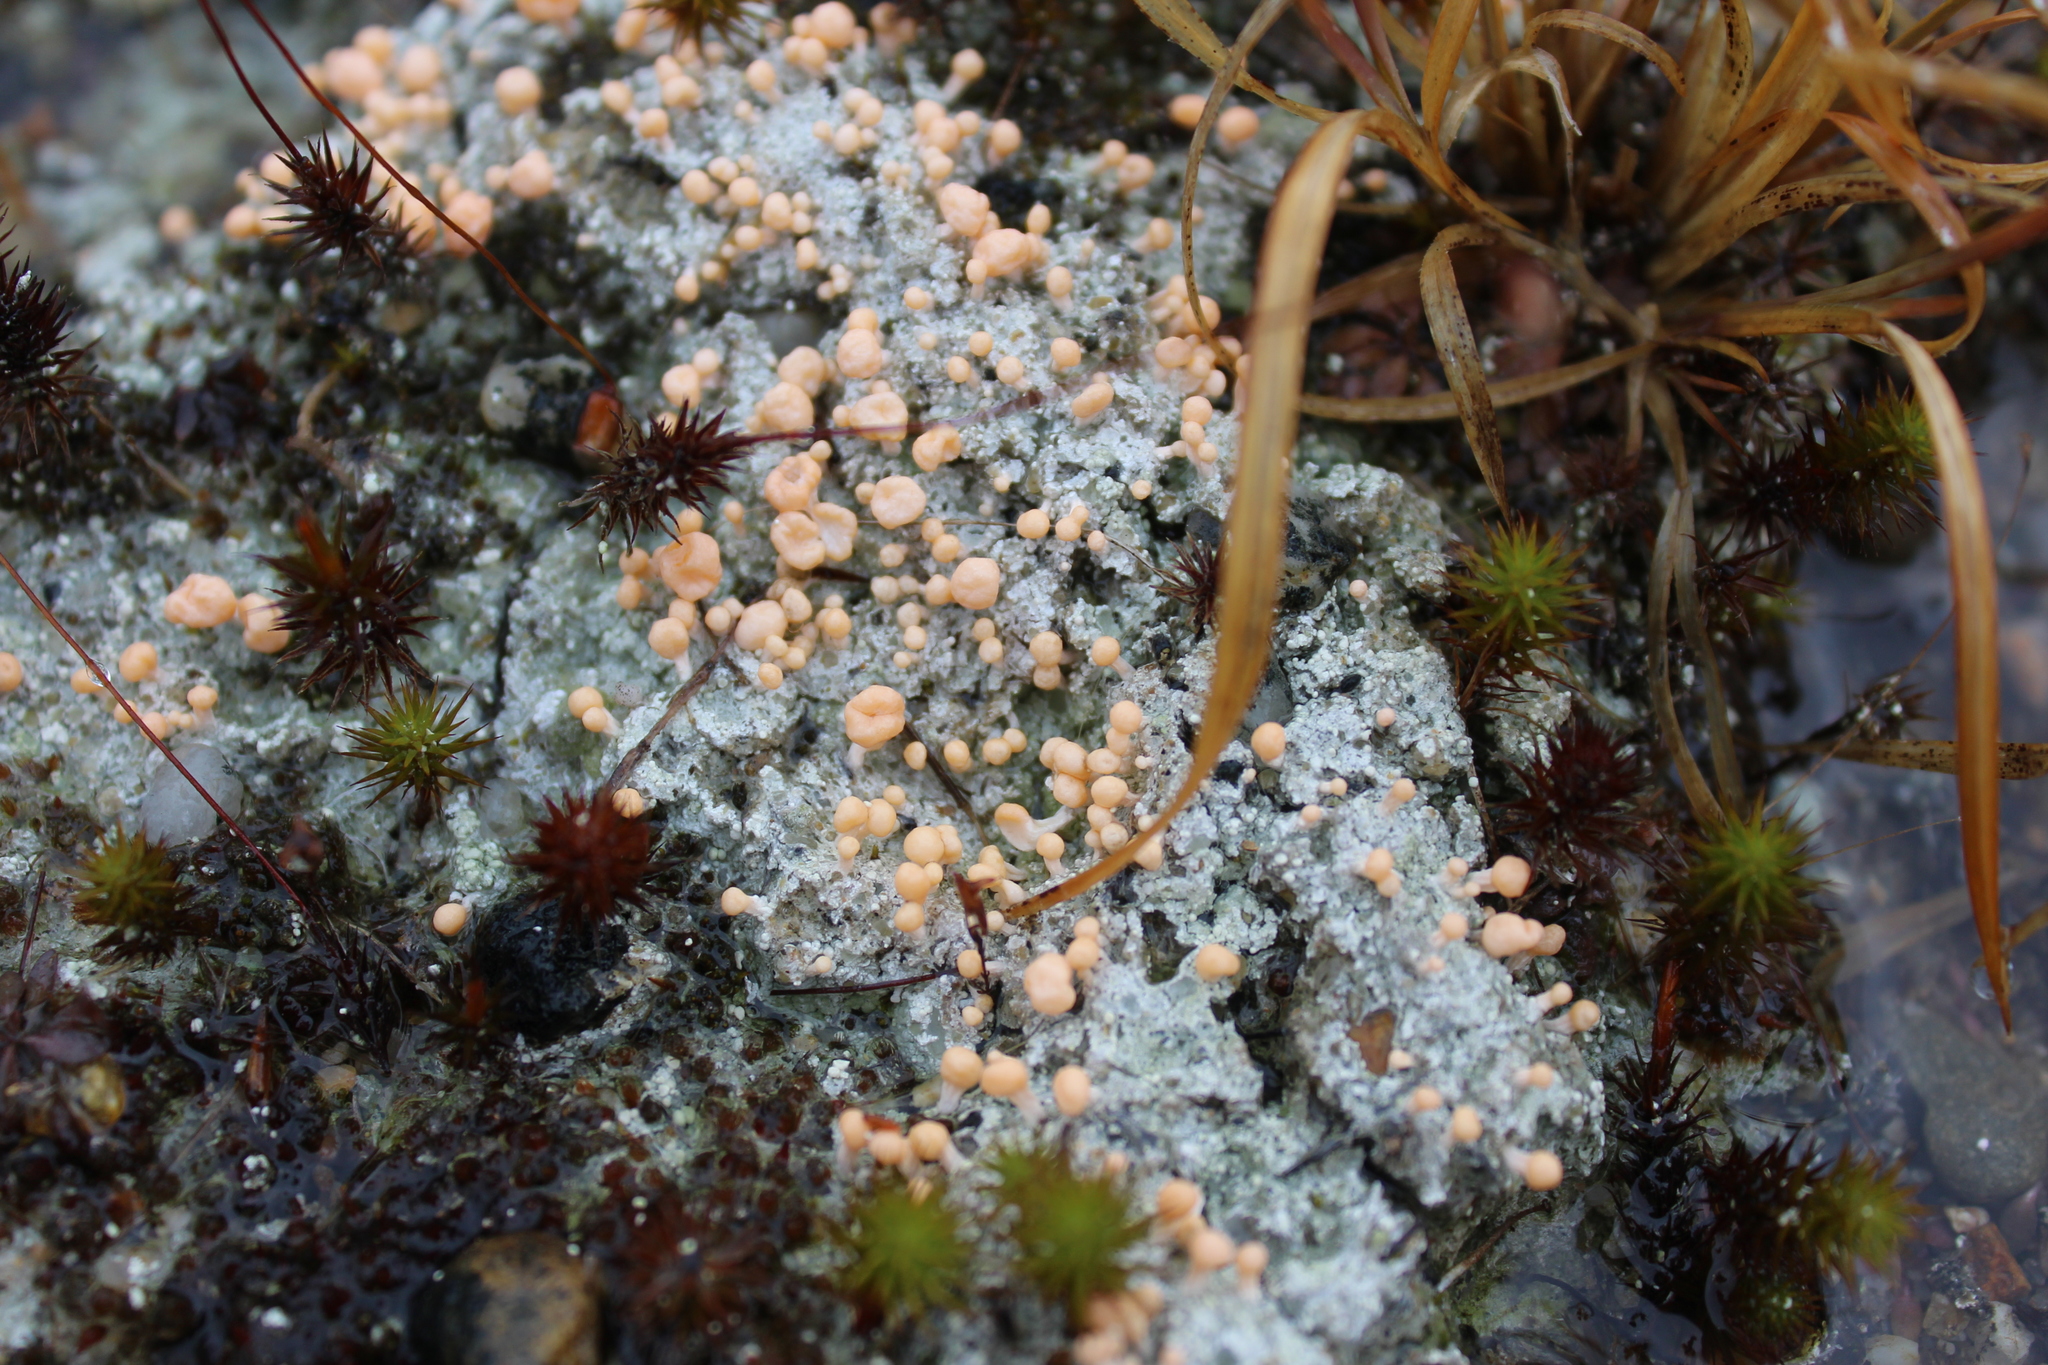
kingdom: Fungi
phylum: Ascomycota
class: Lecanoromycetes
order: Pertusariales
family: Icmadophilaceae
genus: Dibaeis
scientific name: Dibaeis baeomyces
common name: Pink earth lichen
